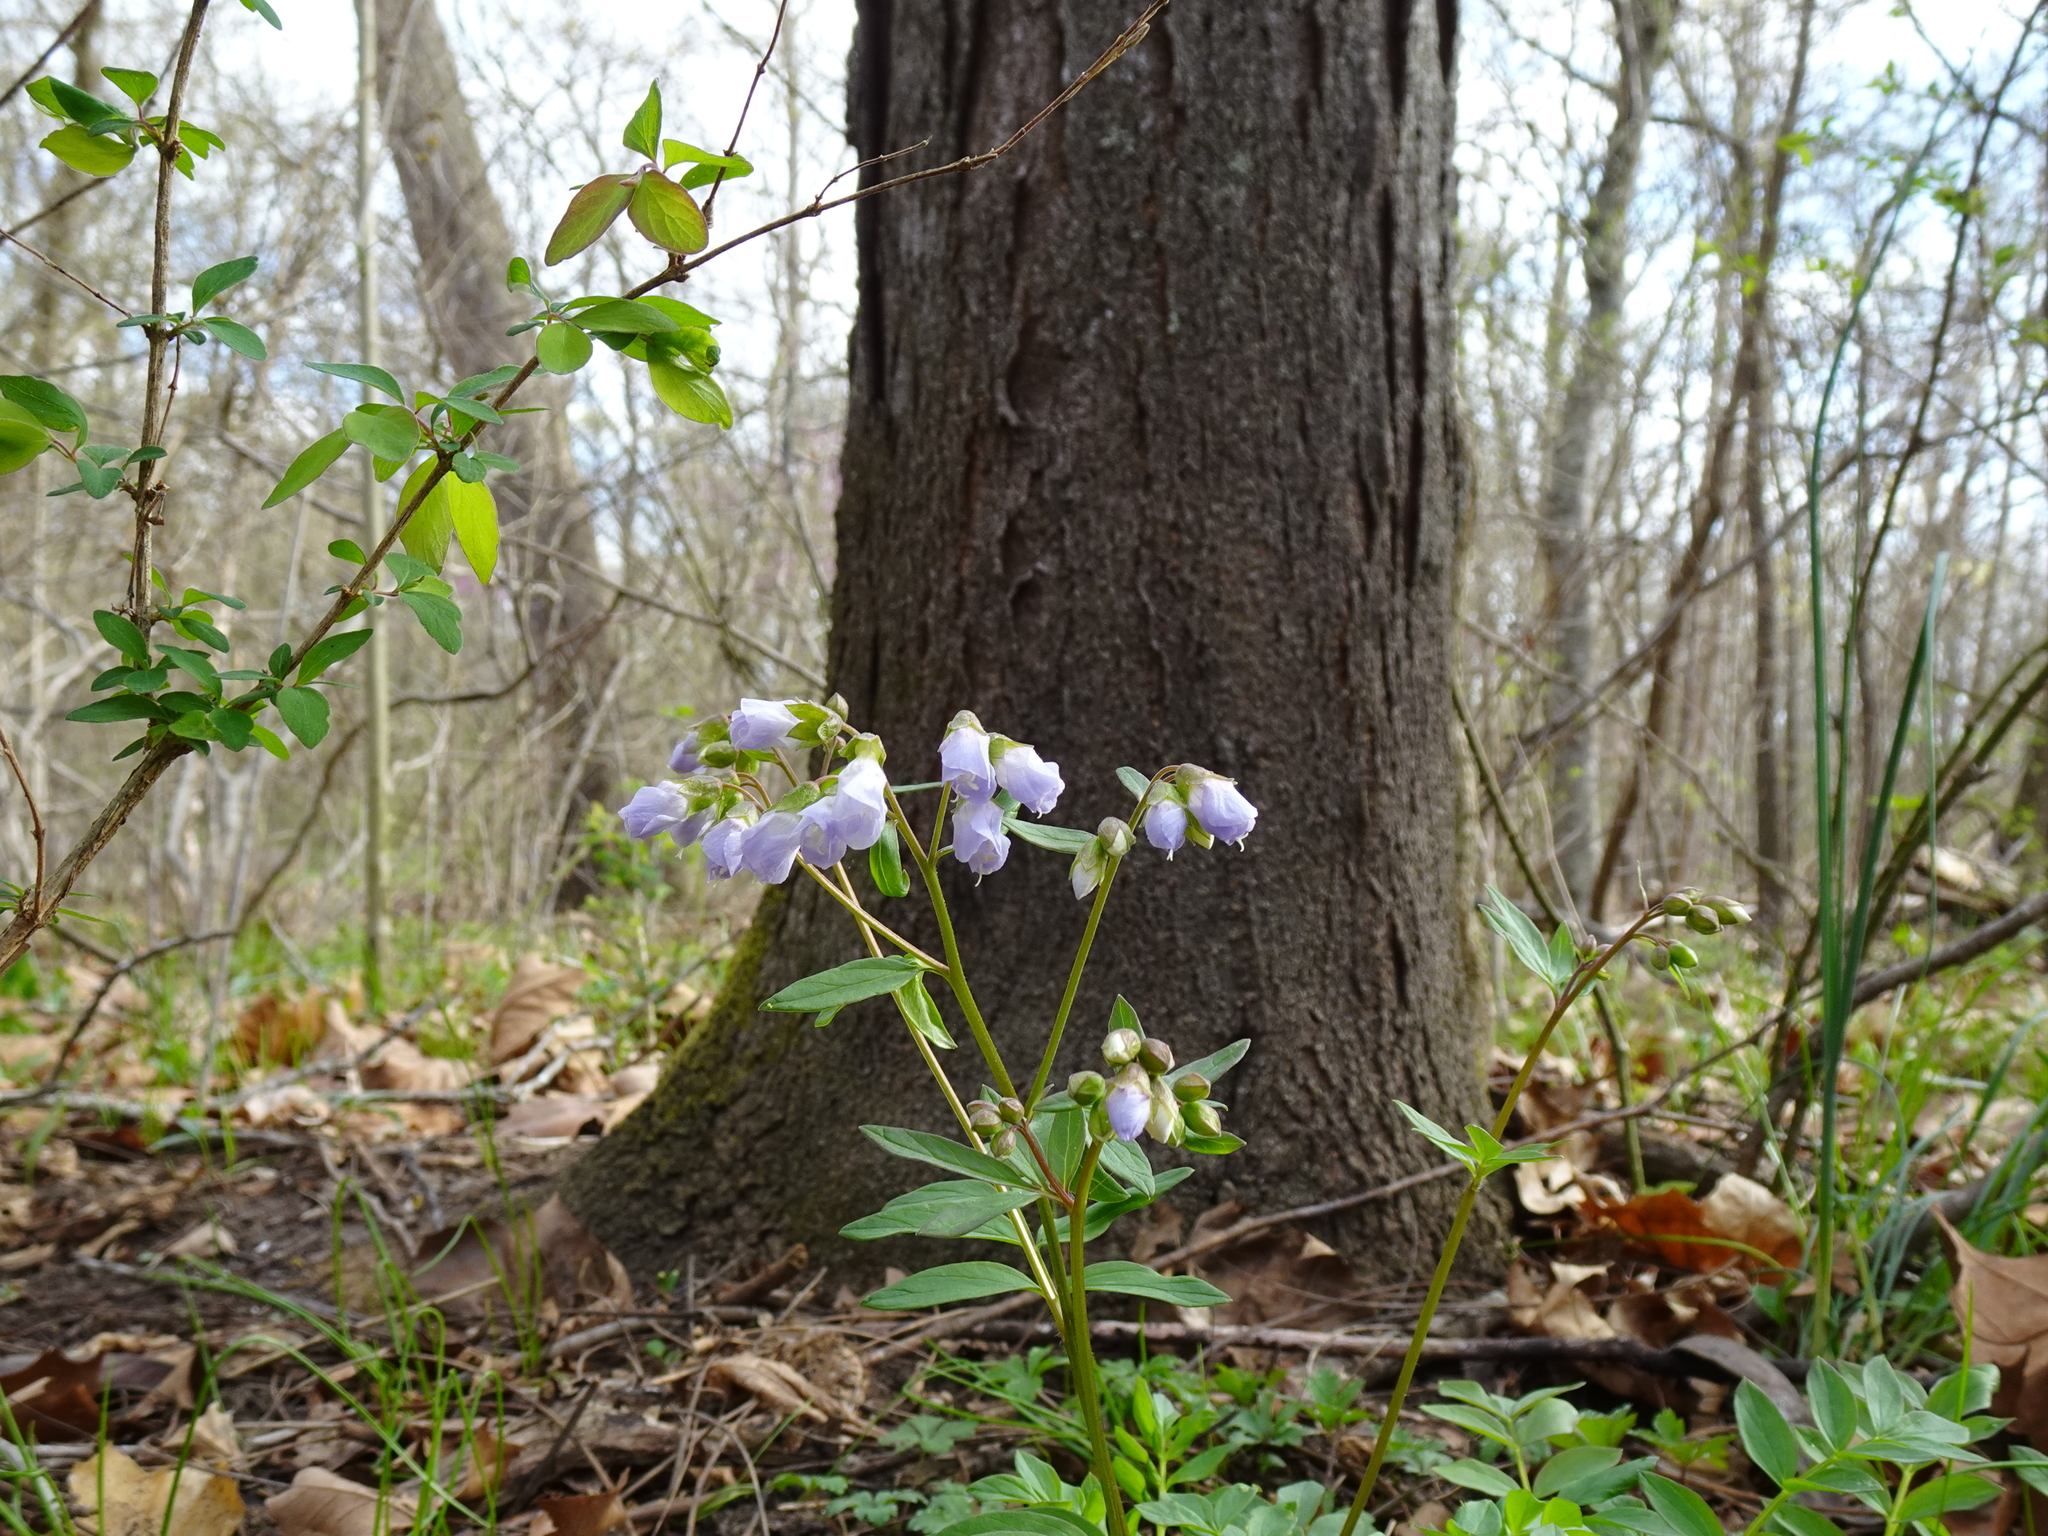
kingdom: Plantae
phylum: Tracheophyta
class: Magnoliopsida
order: Ericales
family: Polemoniaceae
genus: Polemonium
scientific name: Polemonium reptans
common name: Creeping jacob's-ladder
